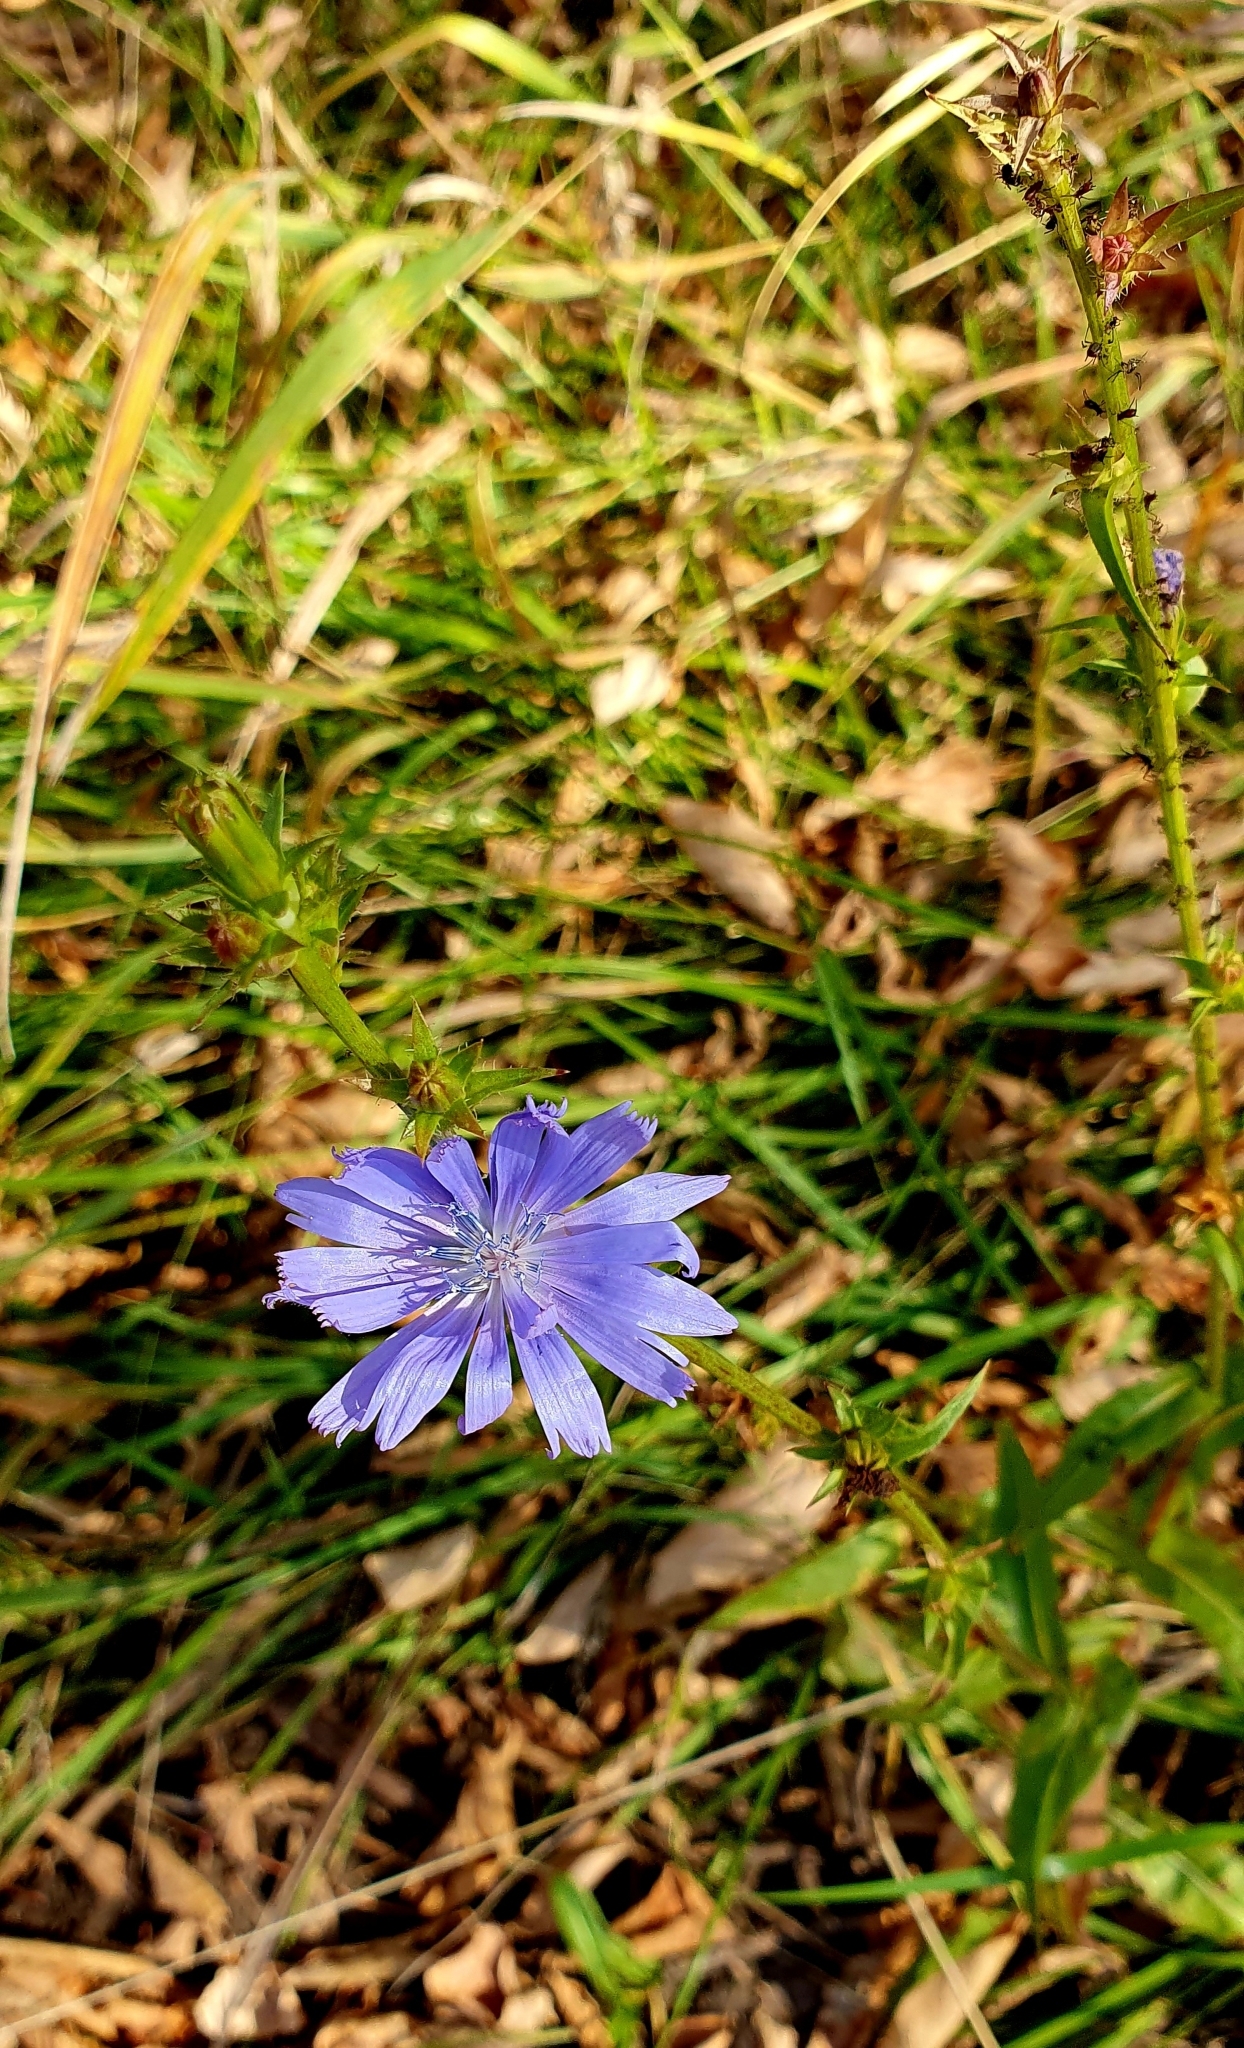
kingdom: Plantae
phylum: Tracheophyta
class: Magnoliopsida
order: Asterales
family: Asteraceae
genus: Cichorium
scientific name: Cichorium intybus
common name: Chicory
